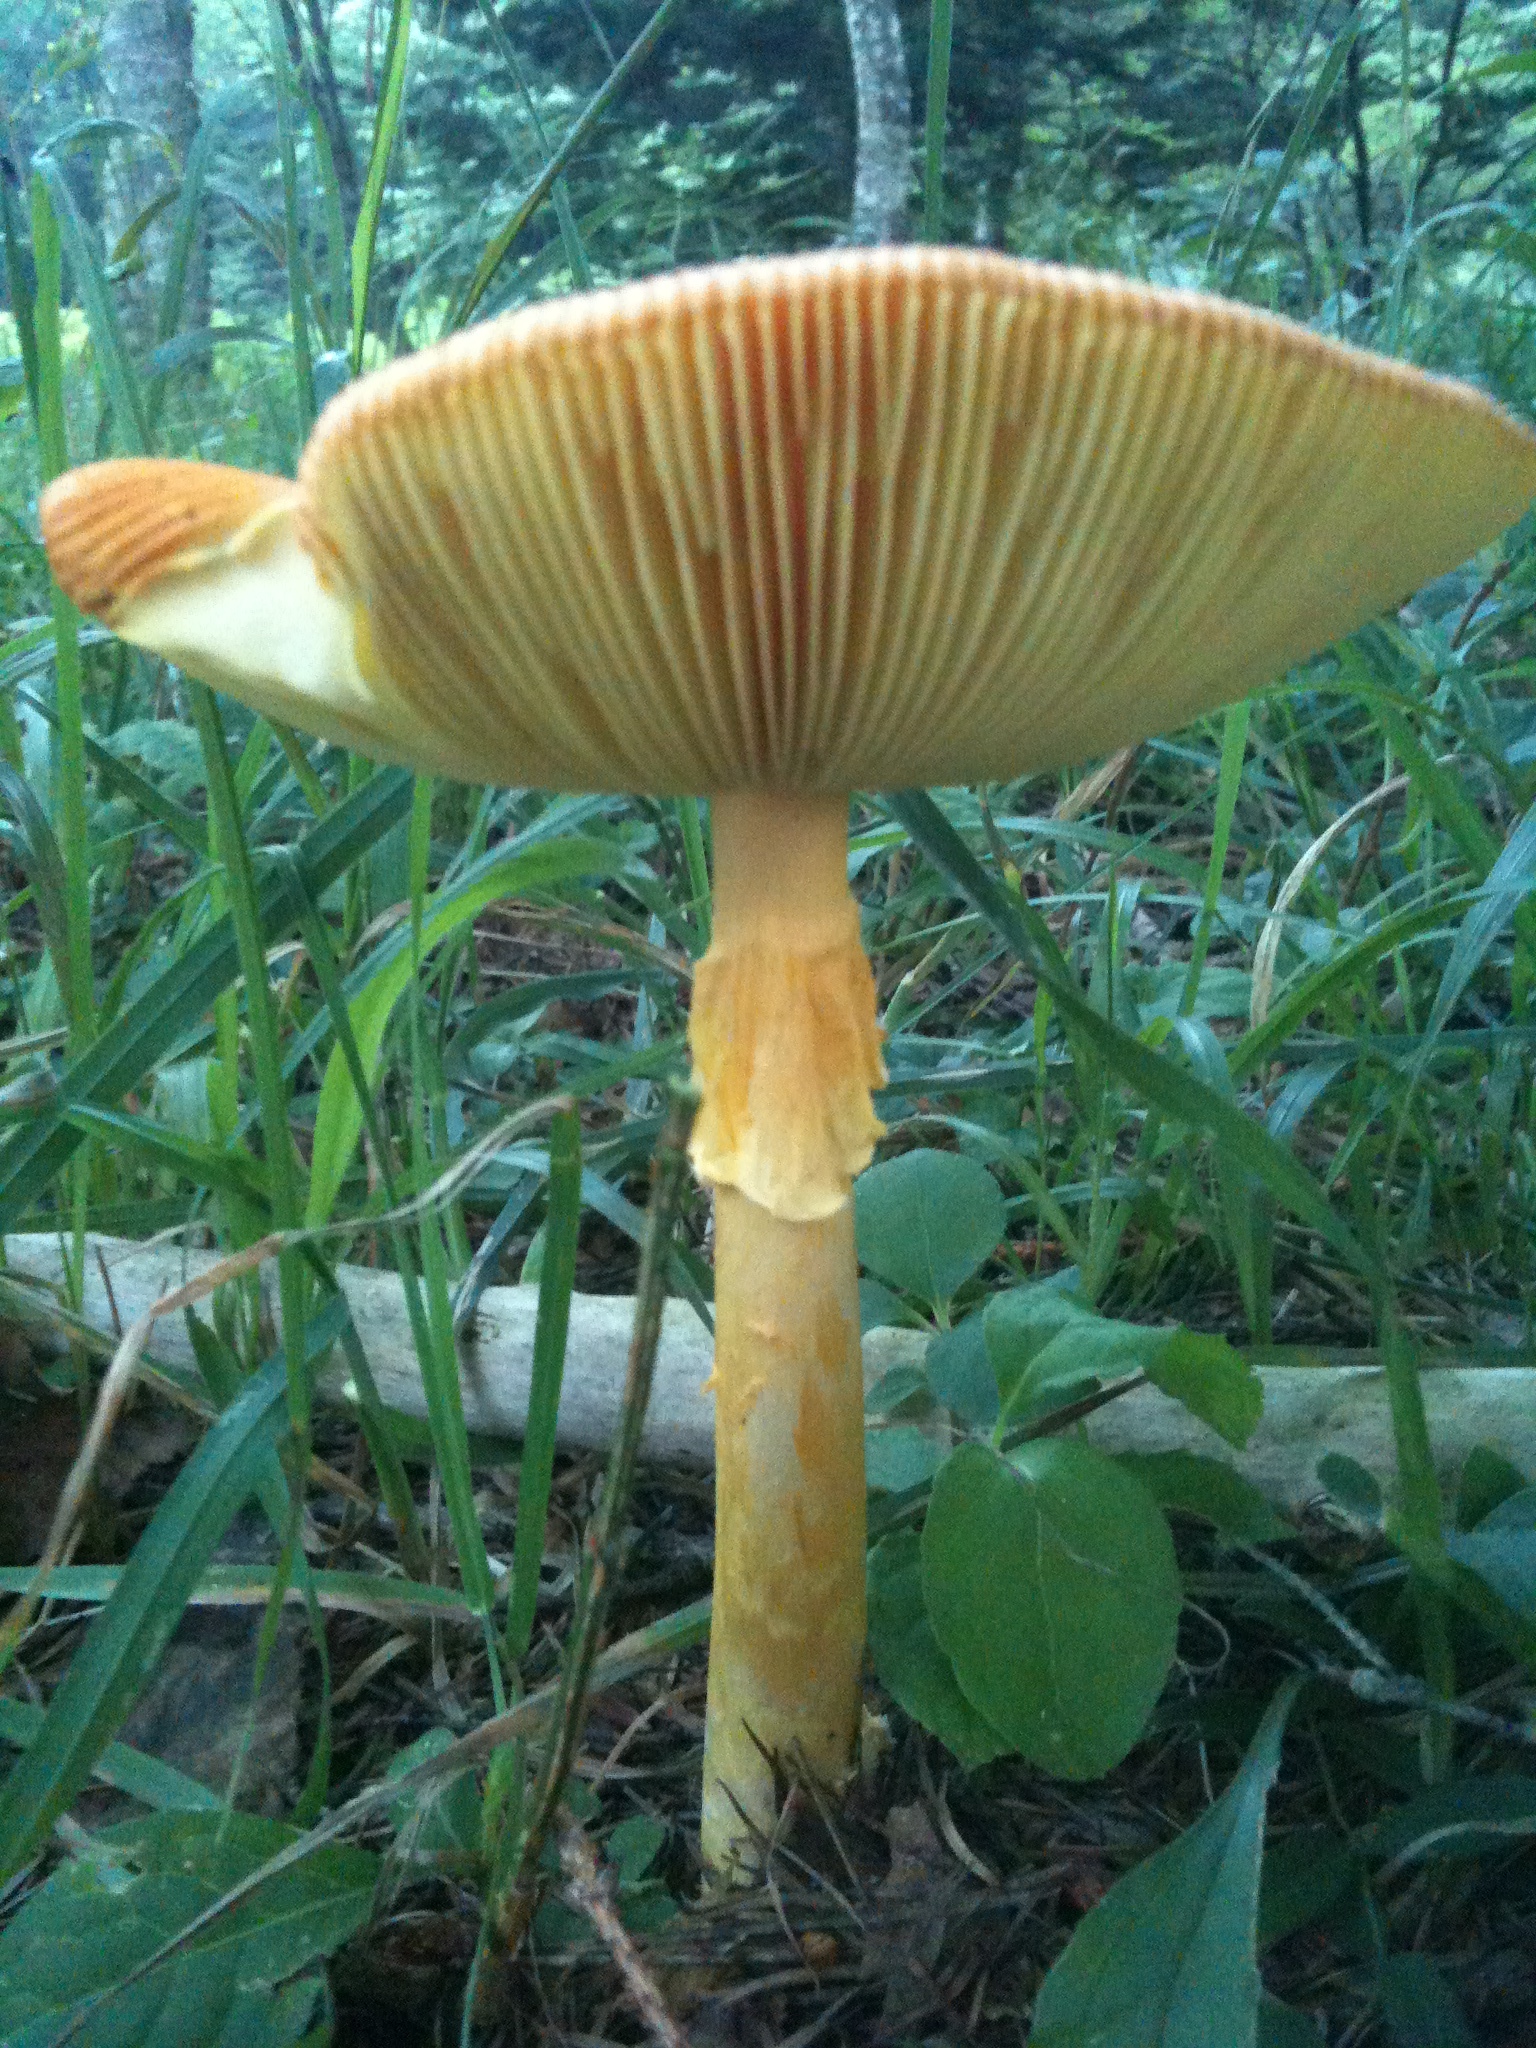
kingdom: Fungi
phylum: Basidiomycota
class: Agaricomycetes
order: Agaricales
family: Amanitaceae
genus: Amanita
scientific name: Amanita caesareoides
